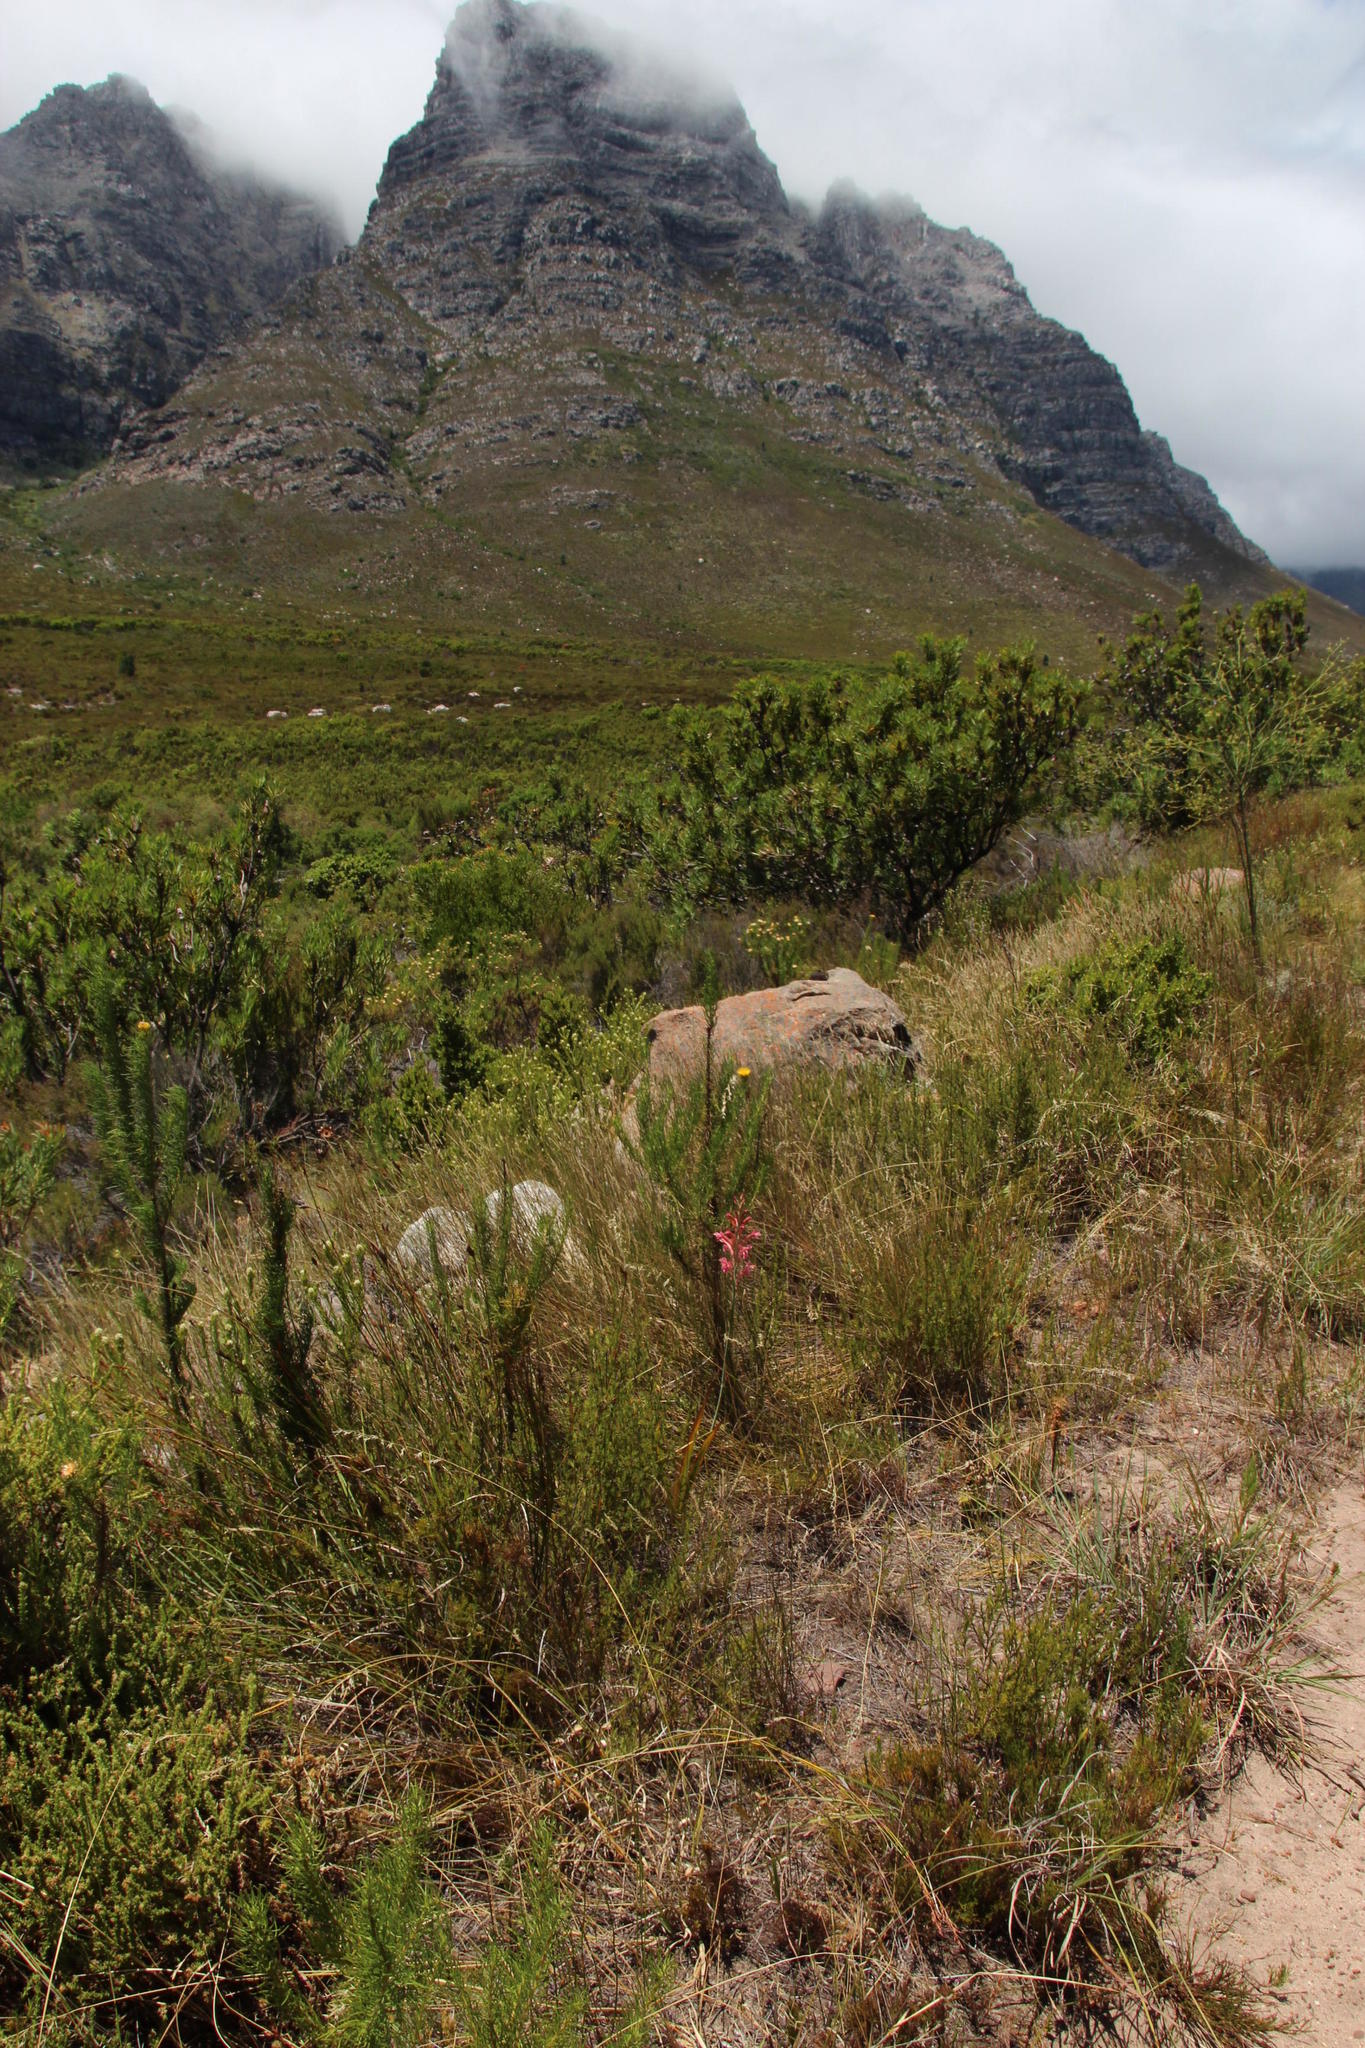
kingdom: Plantae
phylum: Tracheophyta
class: Liliopsida
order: Asparagales
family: Iridaceae
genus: Tritoniopsis
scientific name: Tritoniopsis antholyza
